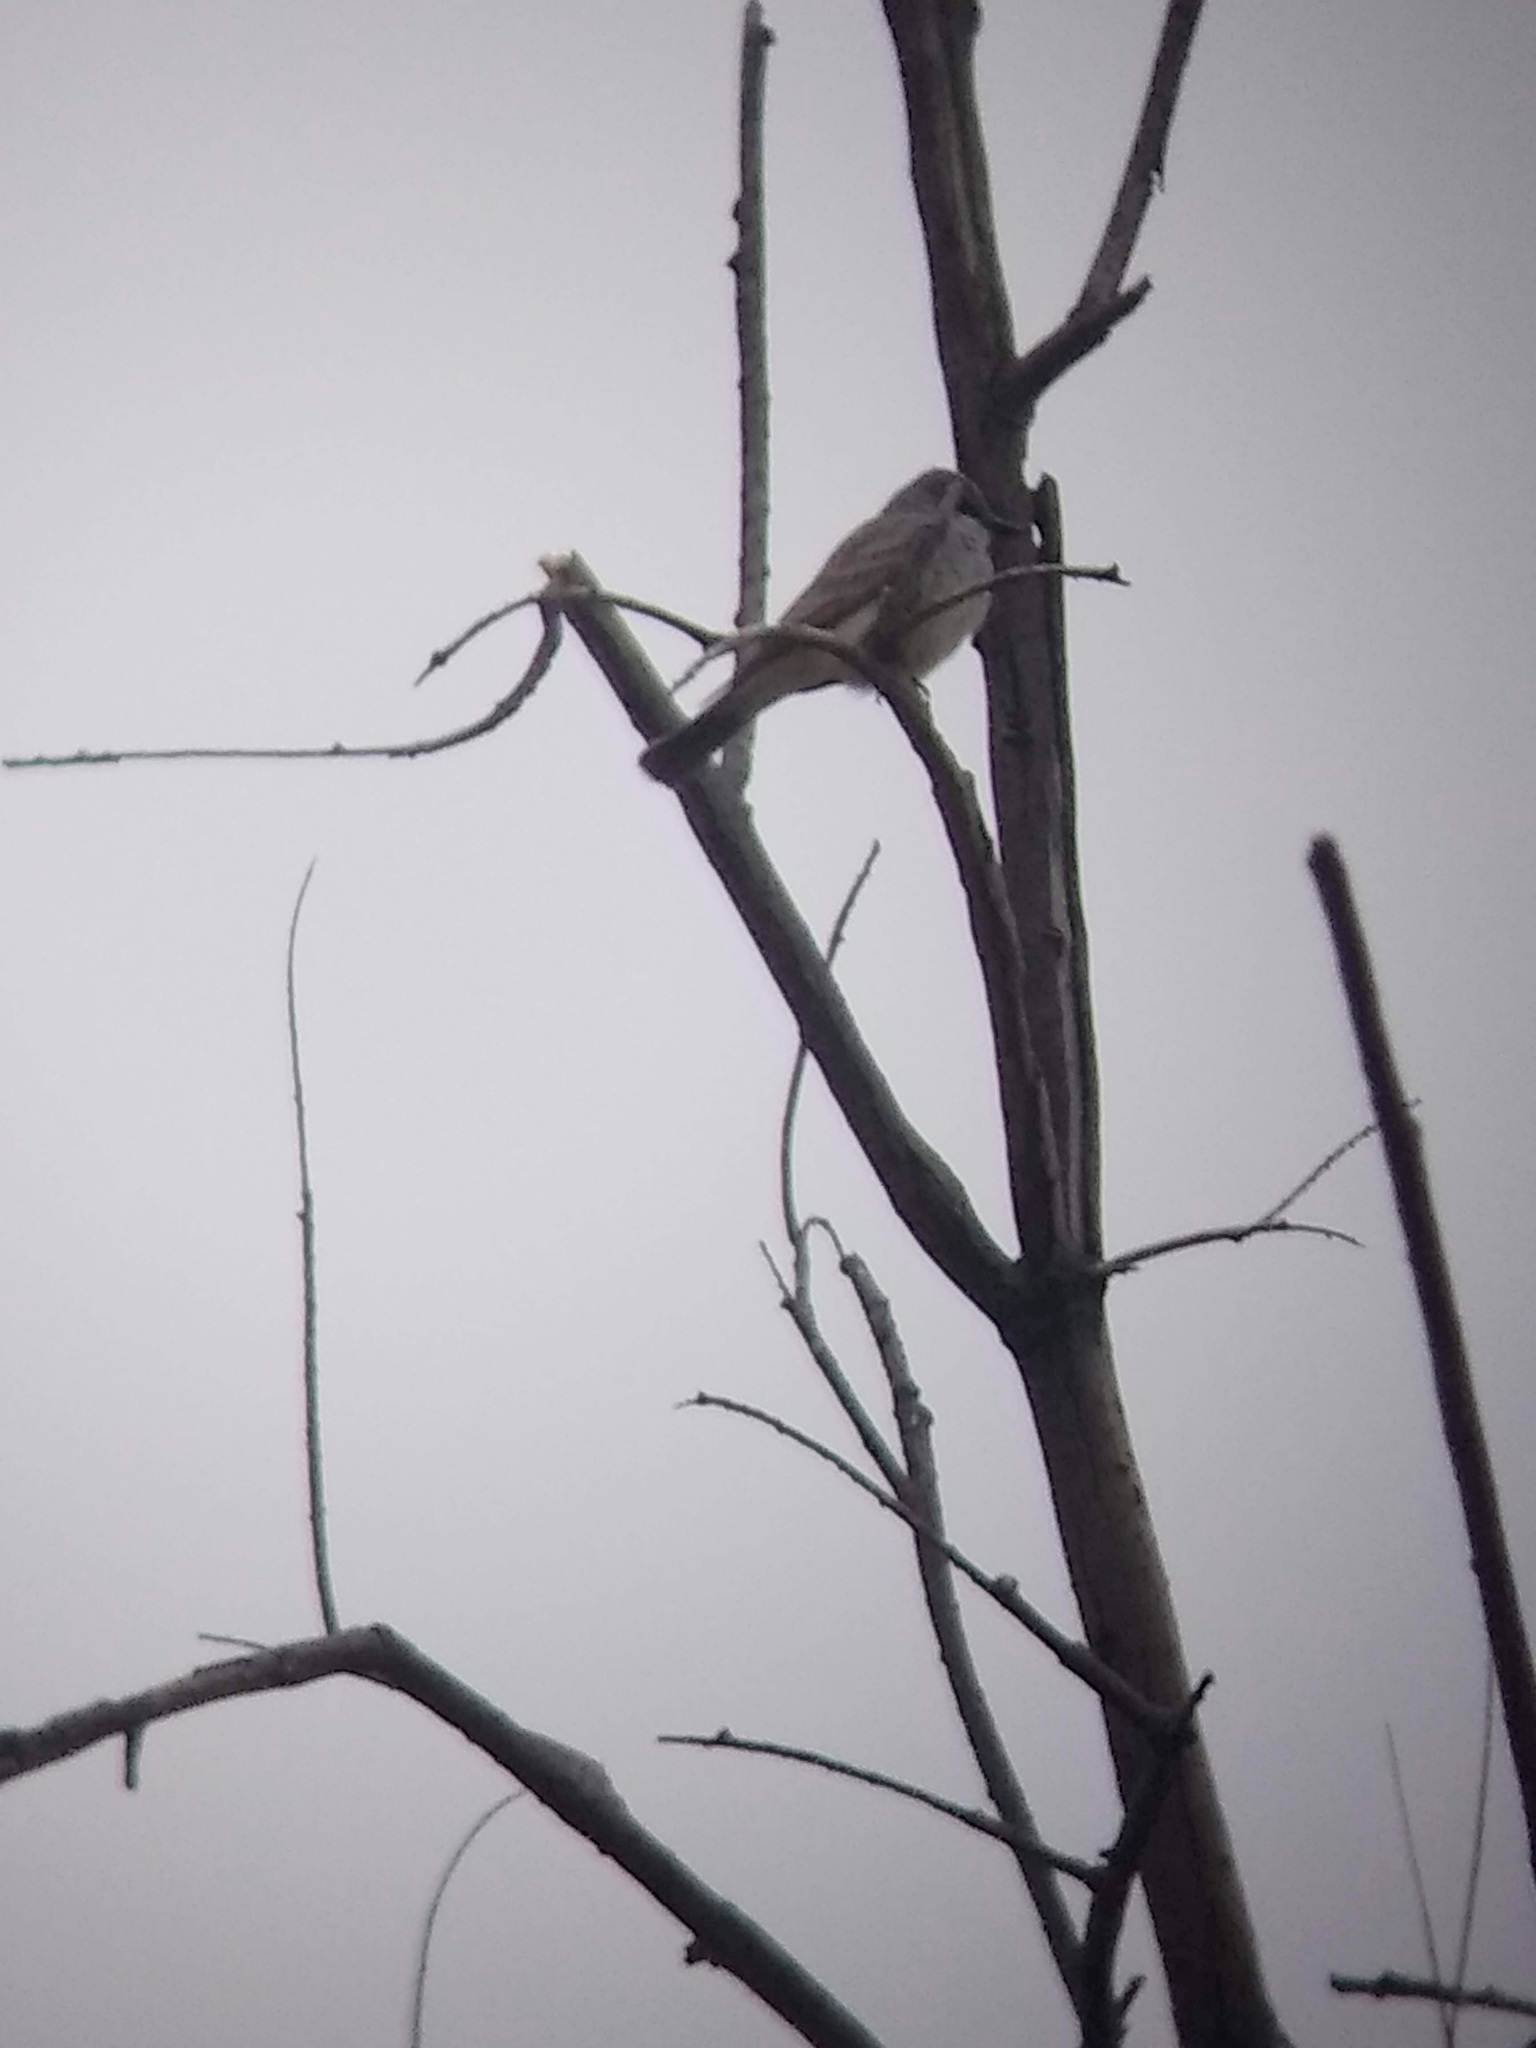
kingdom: Animalia
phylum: Chordata
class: Aves
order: Passeriformes
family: Tyrannidae
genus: Tyrannus
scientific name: Tyrannus
